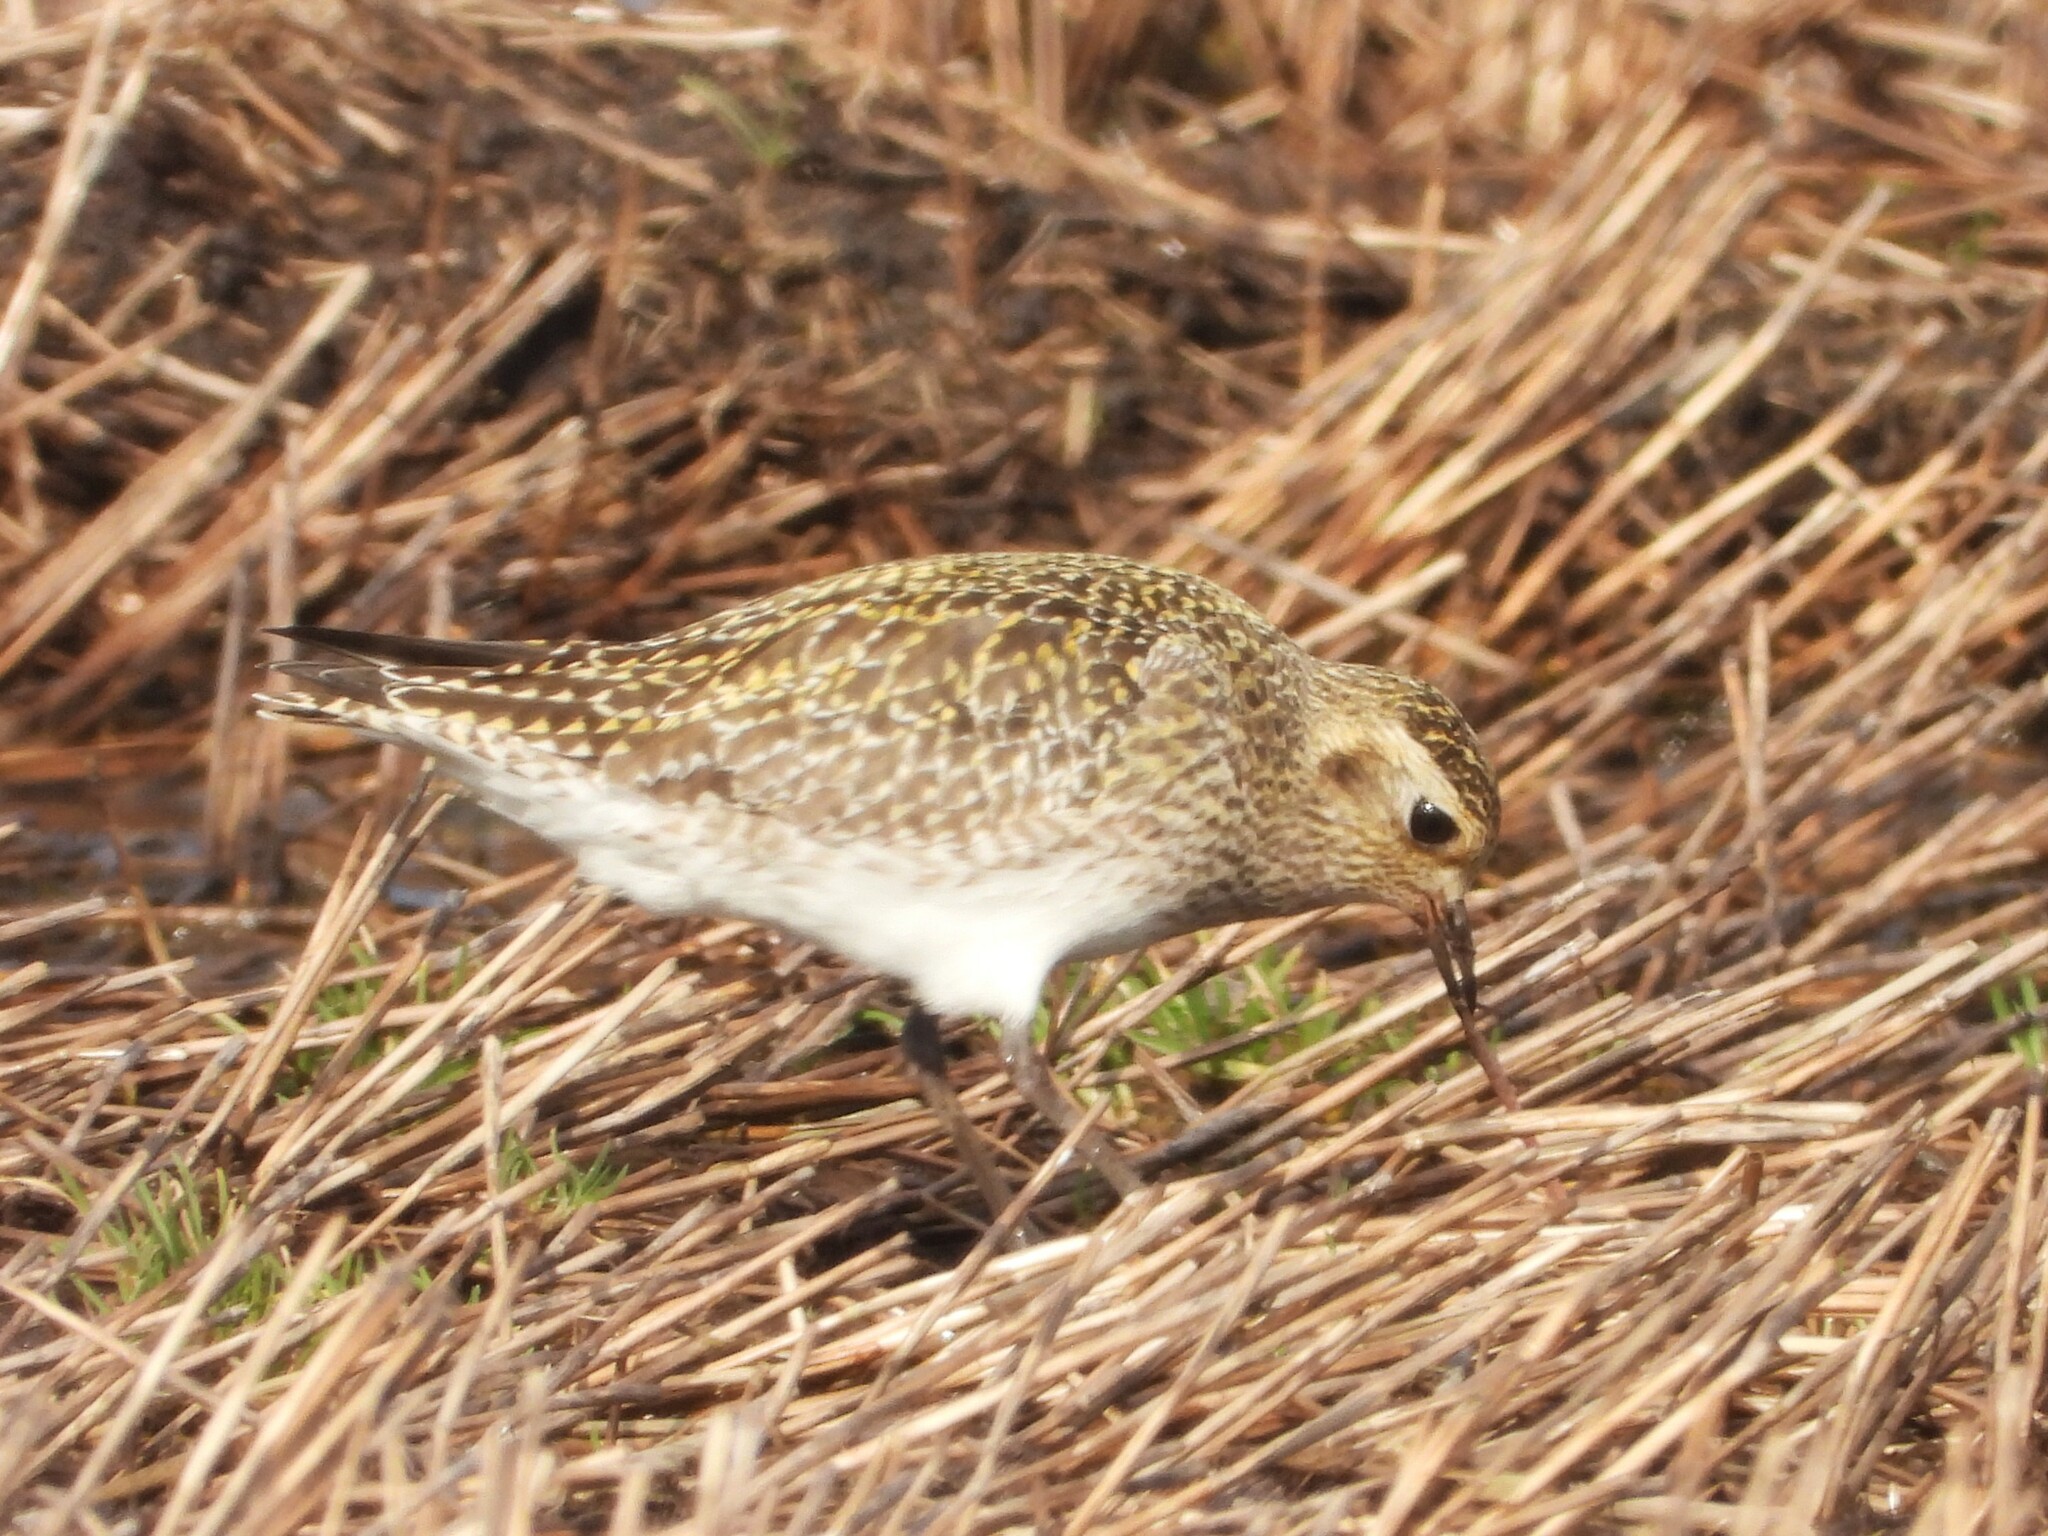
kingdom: Animalia
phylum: Chordata
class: Aves
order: Charadriiformes
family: Charadriidae
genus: Pluvialis
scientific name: Pluvialis apricaria
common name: European golden plover
